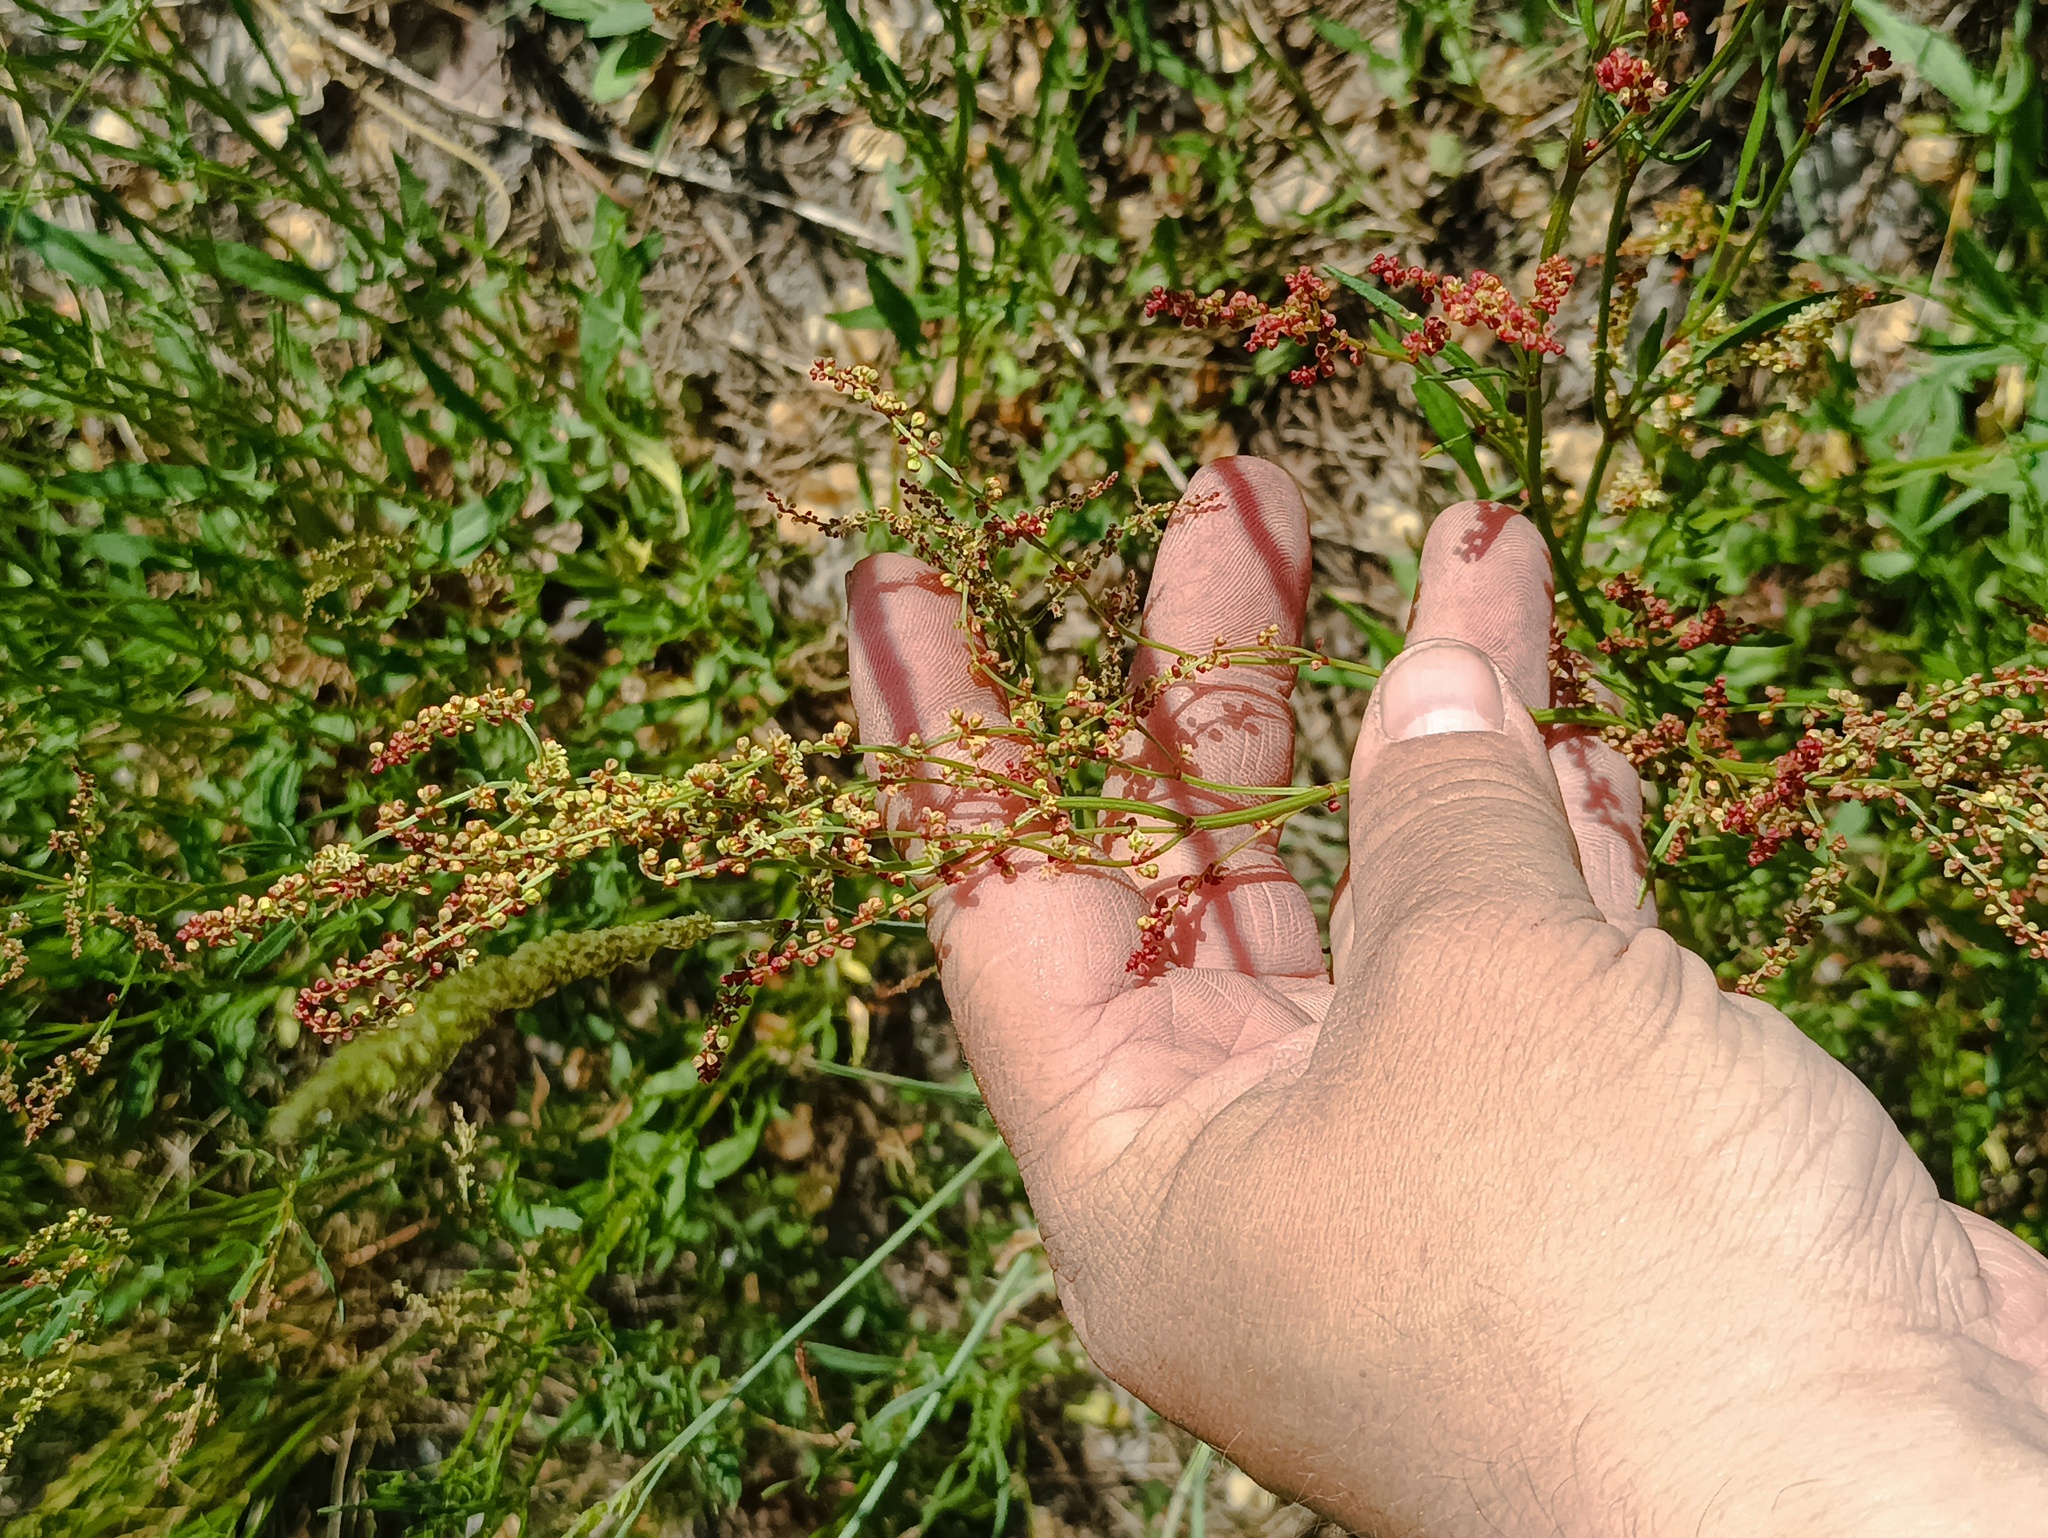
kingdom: Plantae
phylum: Tracheophyta
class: Magnoliopsida
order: Caryophyllales
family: Polygonaceae
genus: Rumex
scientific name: Rumex acetosella
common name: Common sheep sorrel
